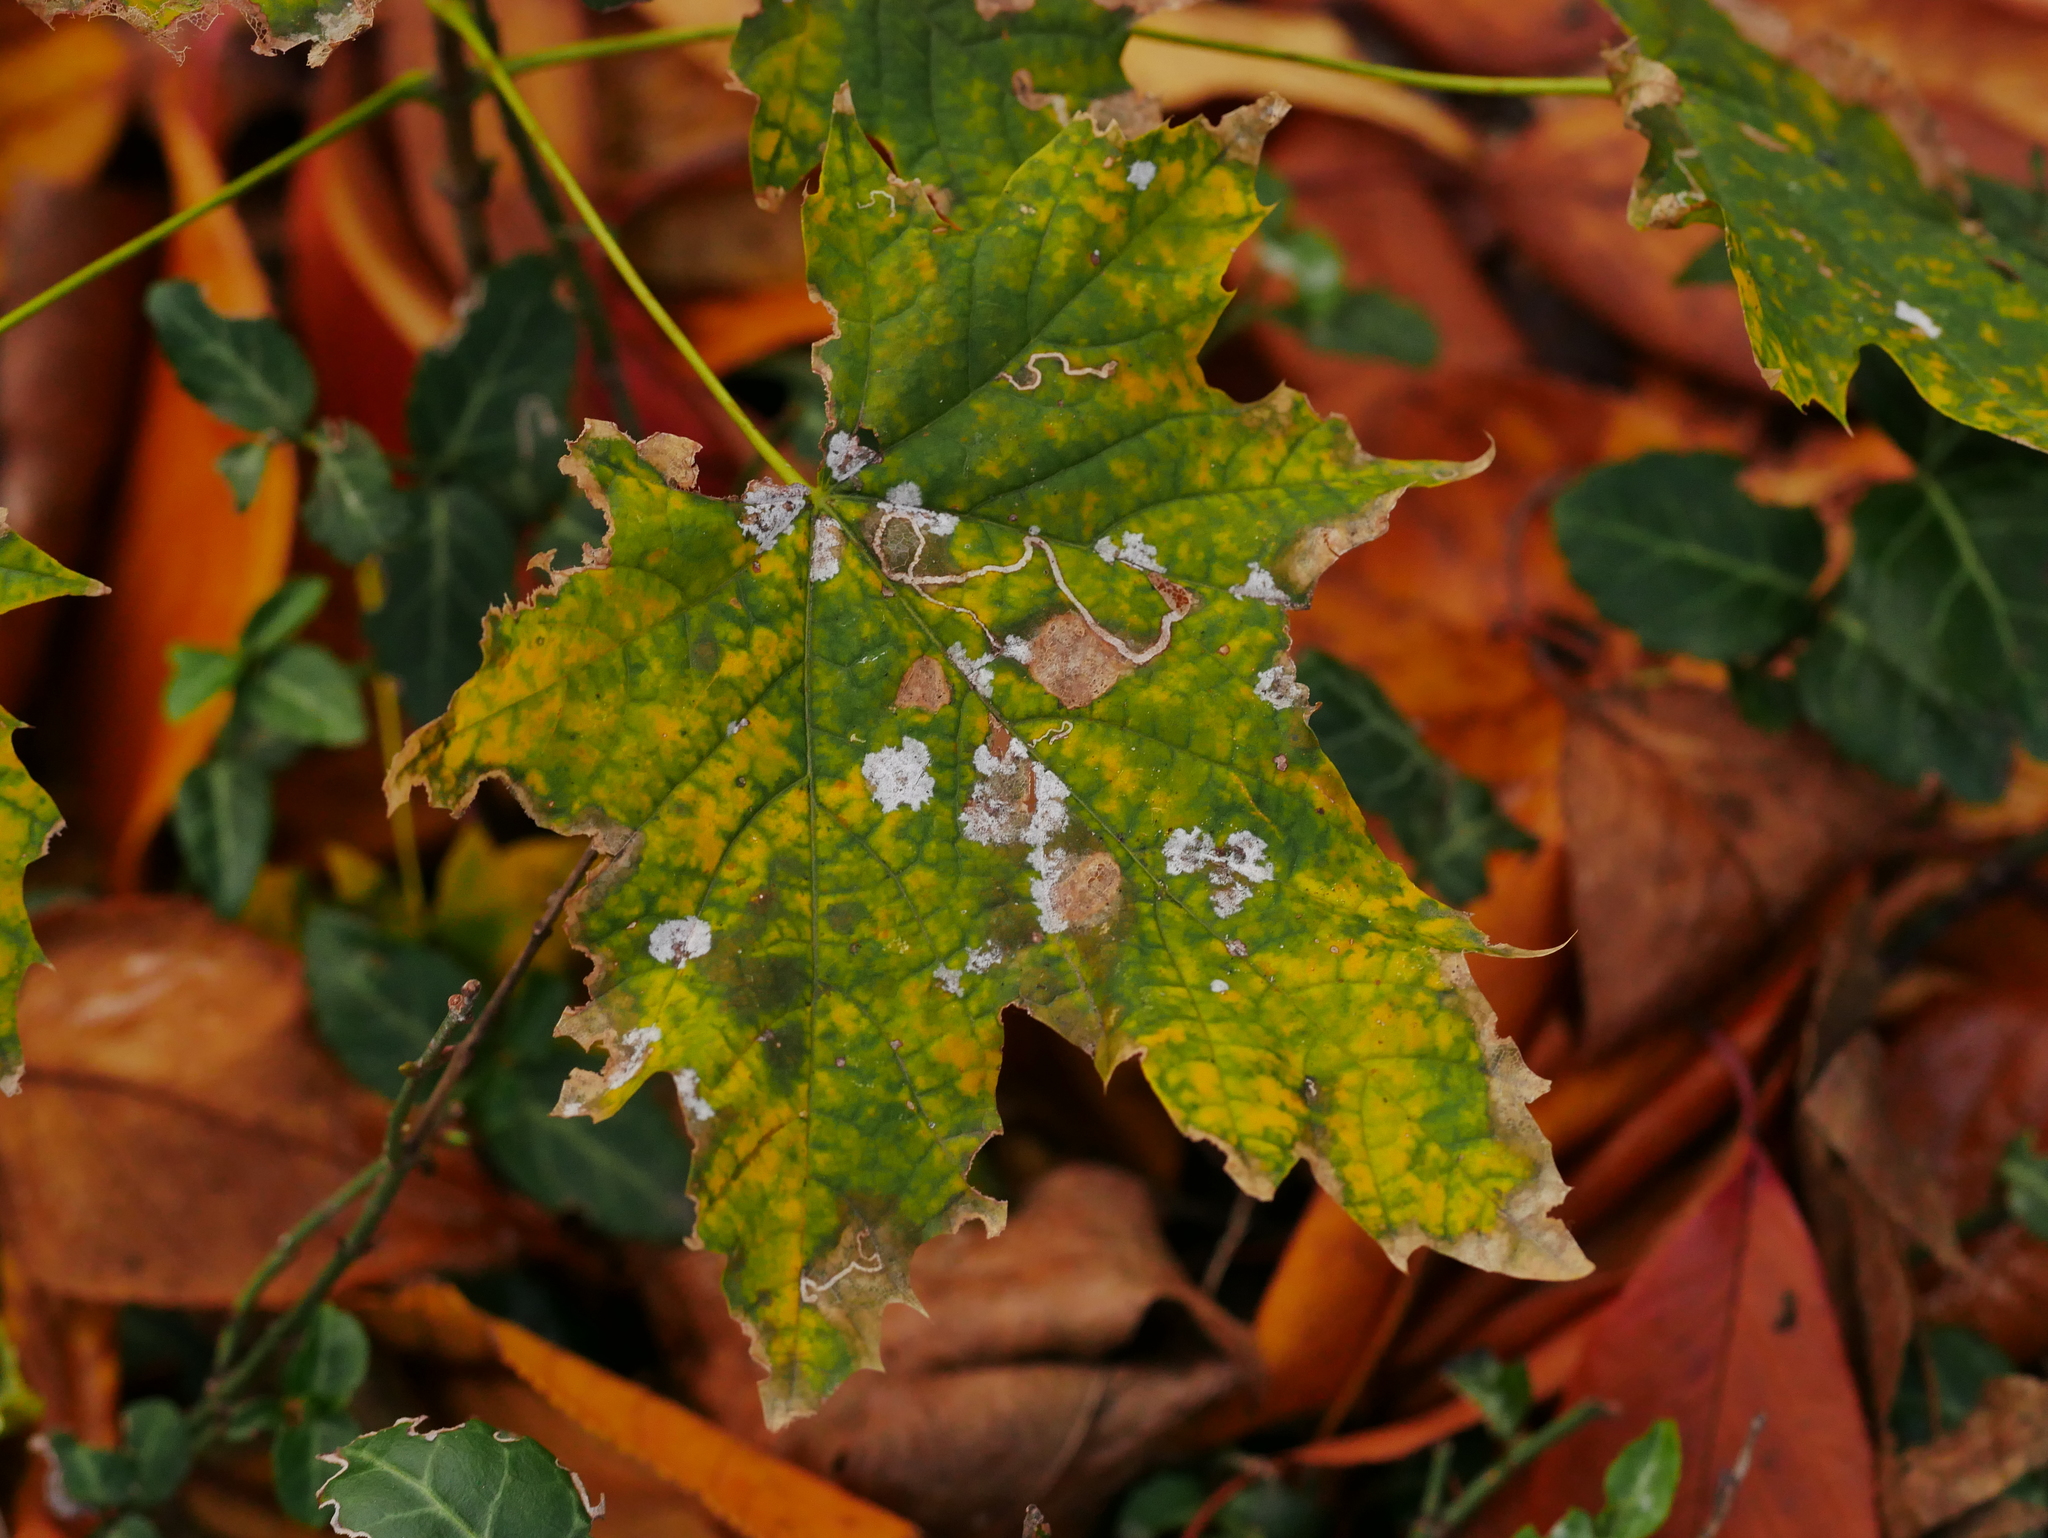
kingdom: Plantae
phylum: Tracheophyta
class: Magnoliopsida
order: Sapindales
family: Sapindaceae
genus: Acer
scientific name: Acer platanoides
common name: Norway maple
